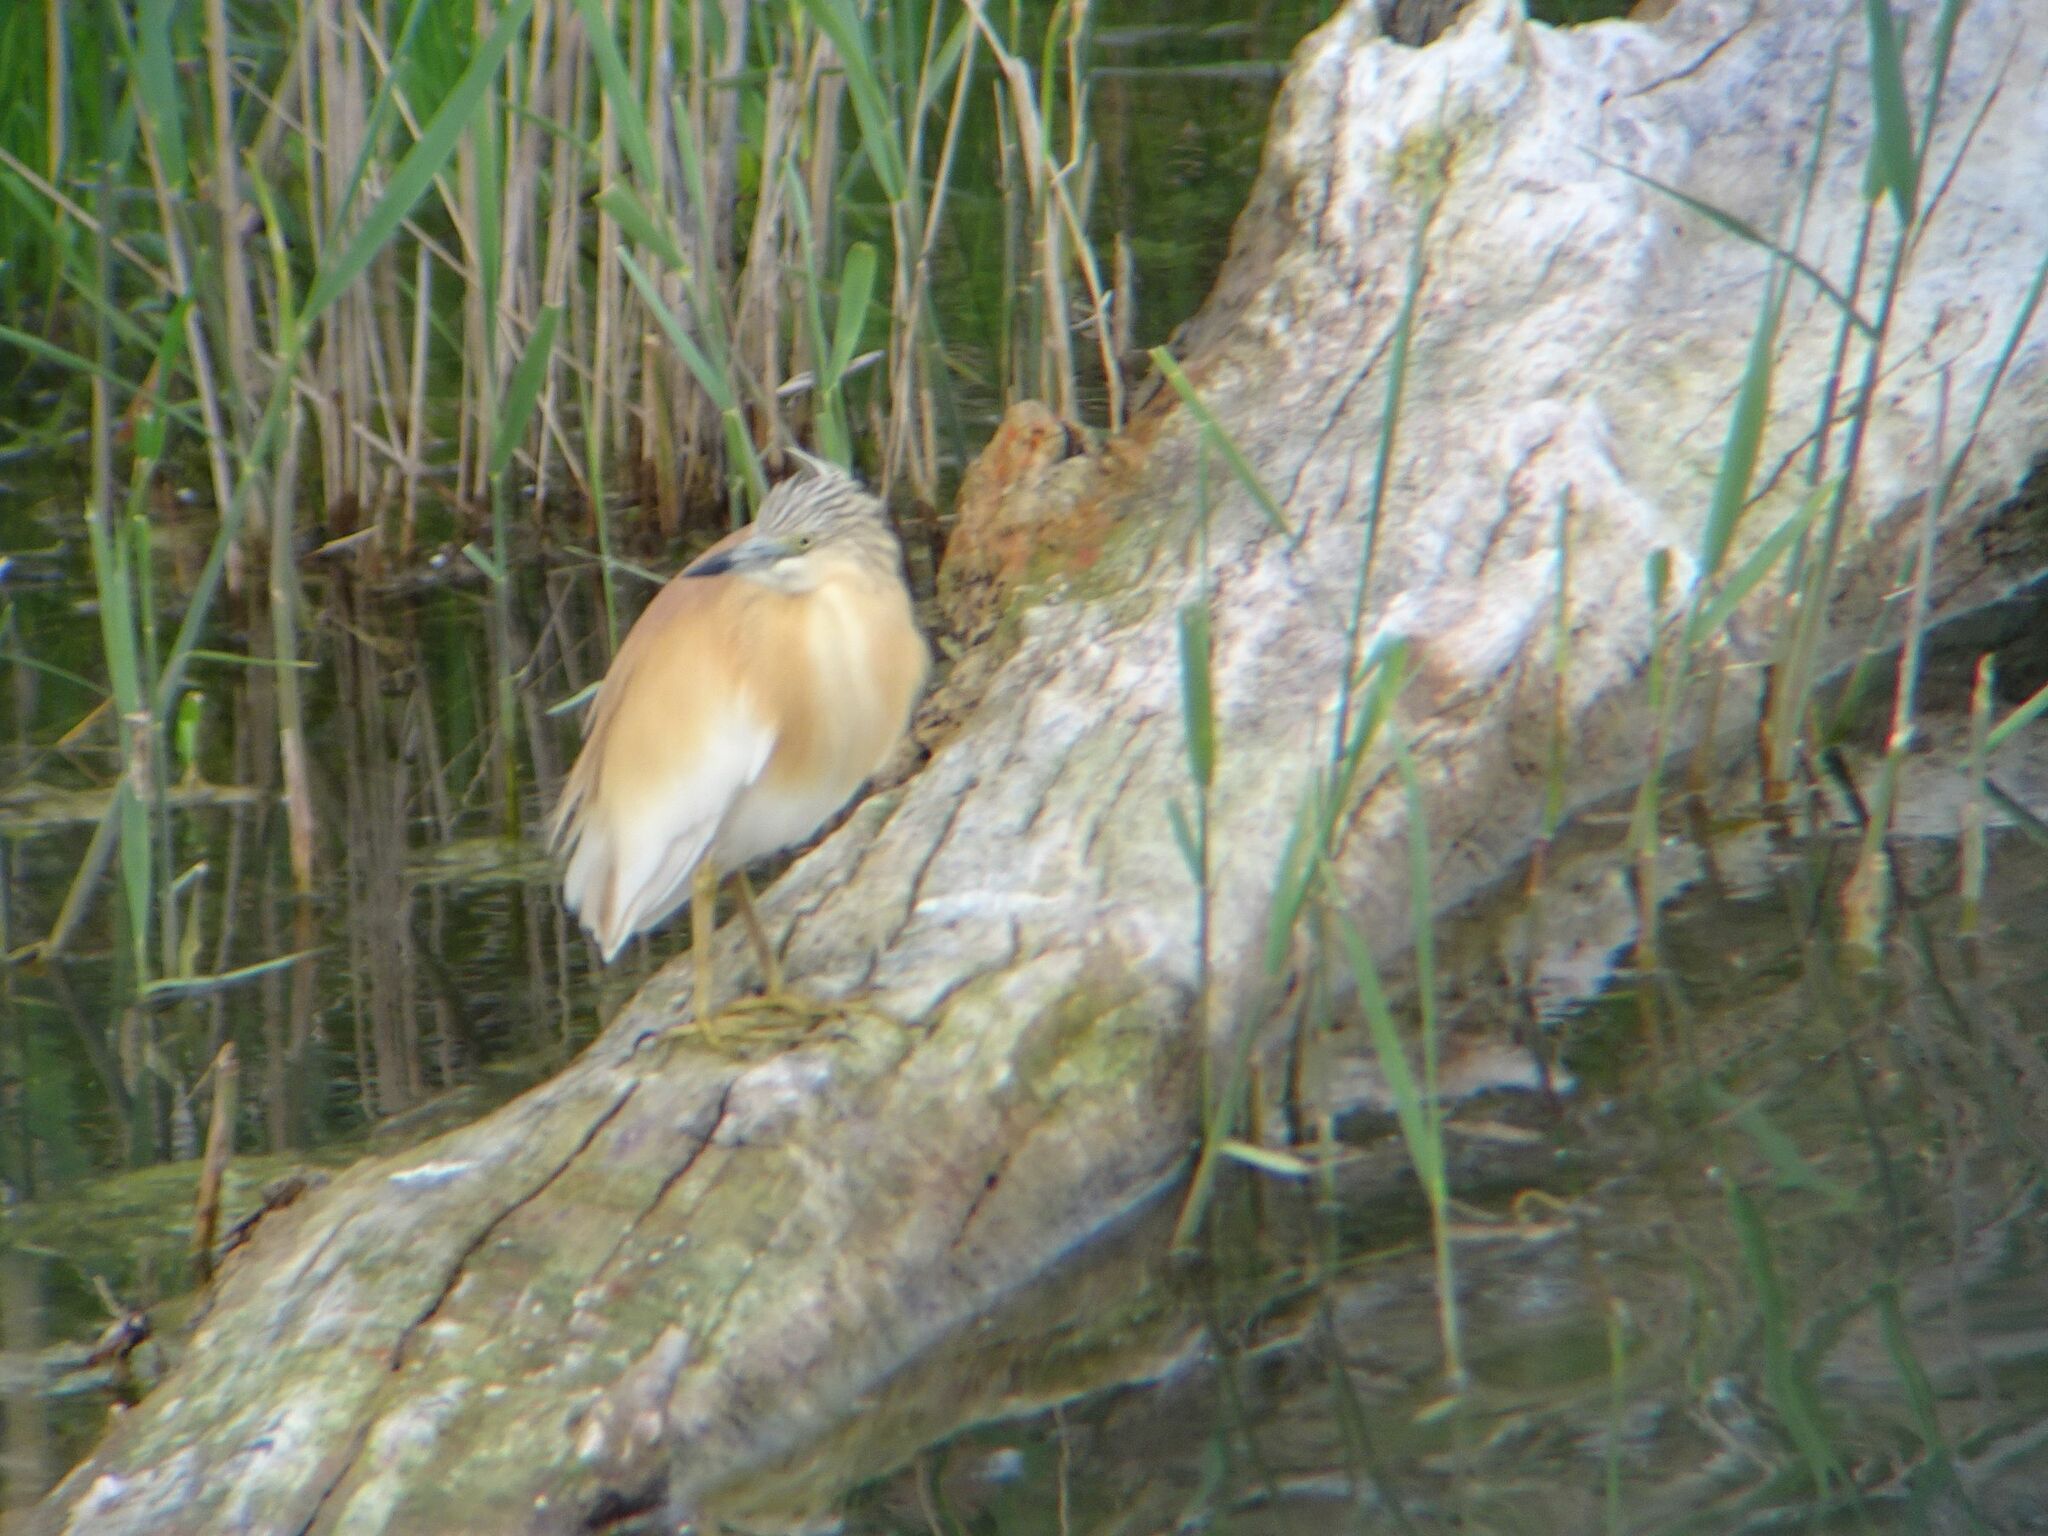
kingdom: Animalia
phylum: Chordata
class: Aves
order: Pelecaniformes
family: Ardeidae
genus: Ardeola
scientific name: Ardeola ralloides
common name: Squacco heron
